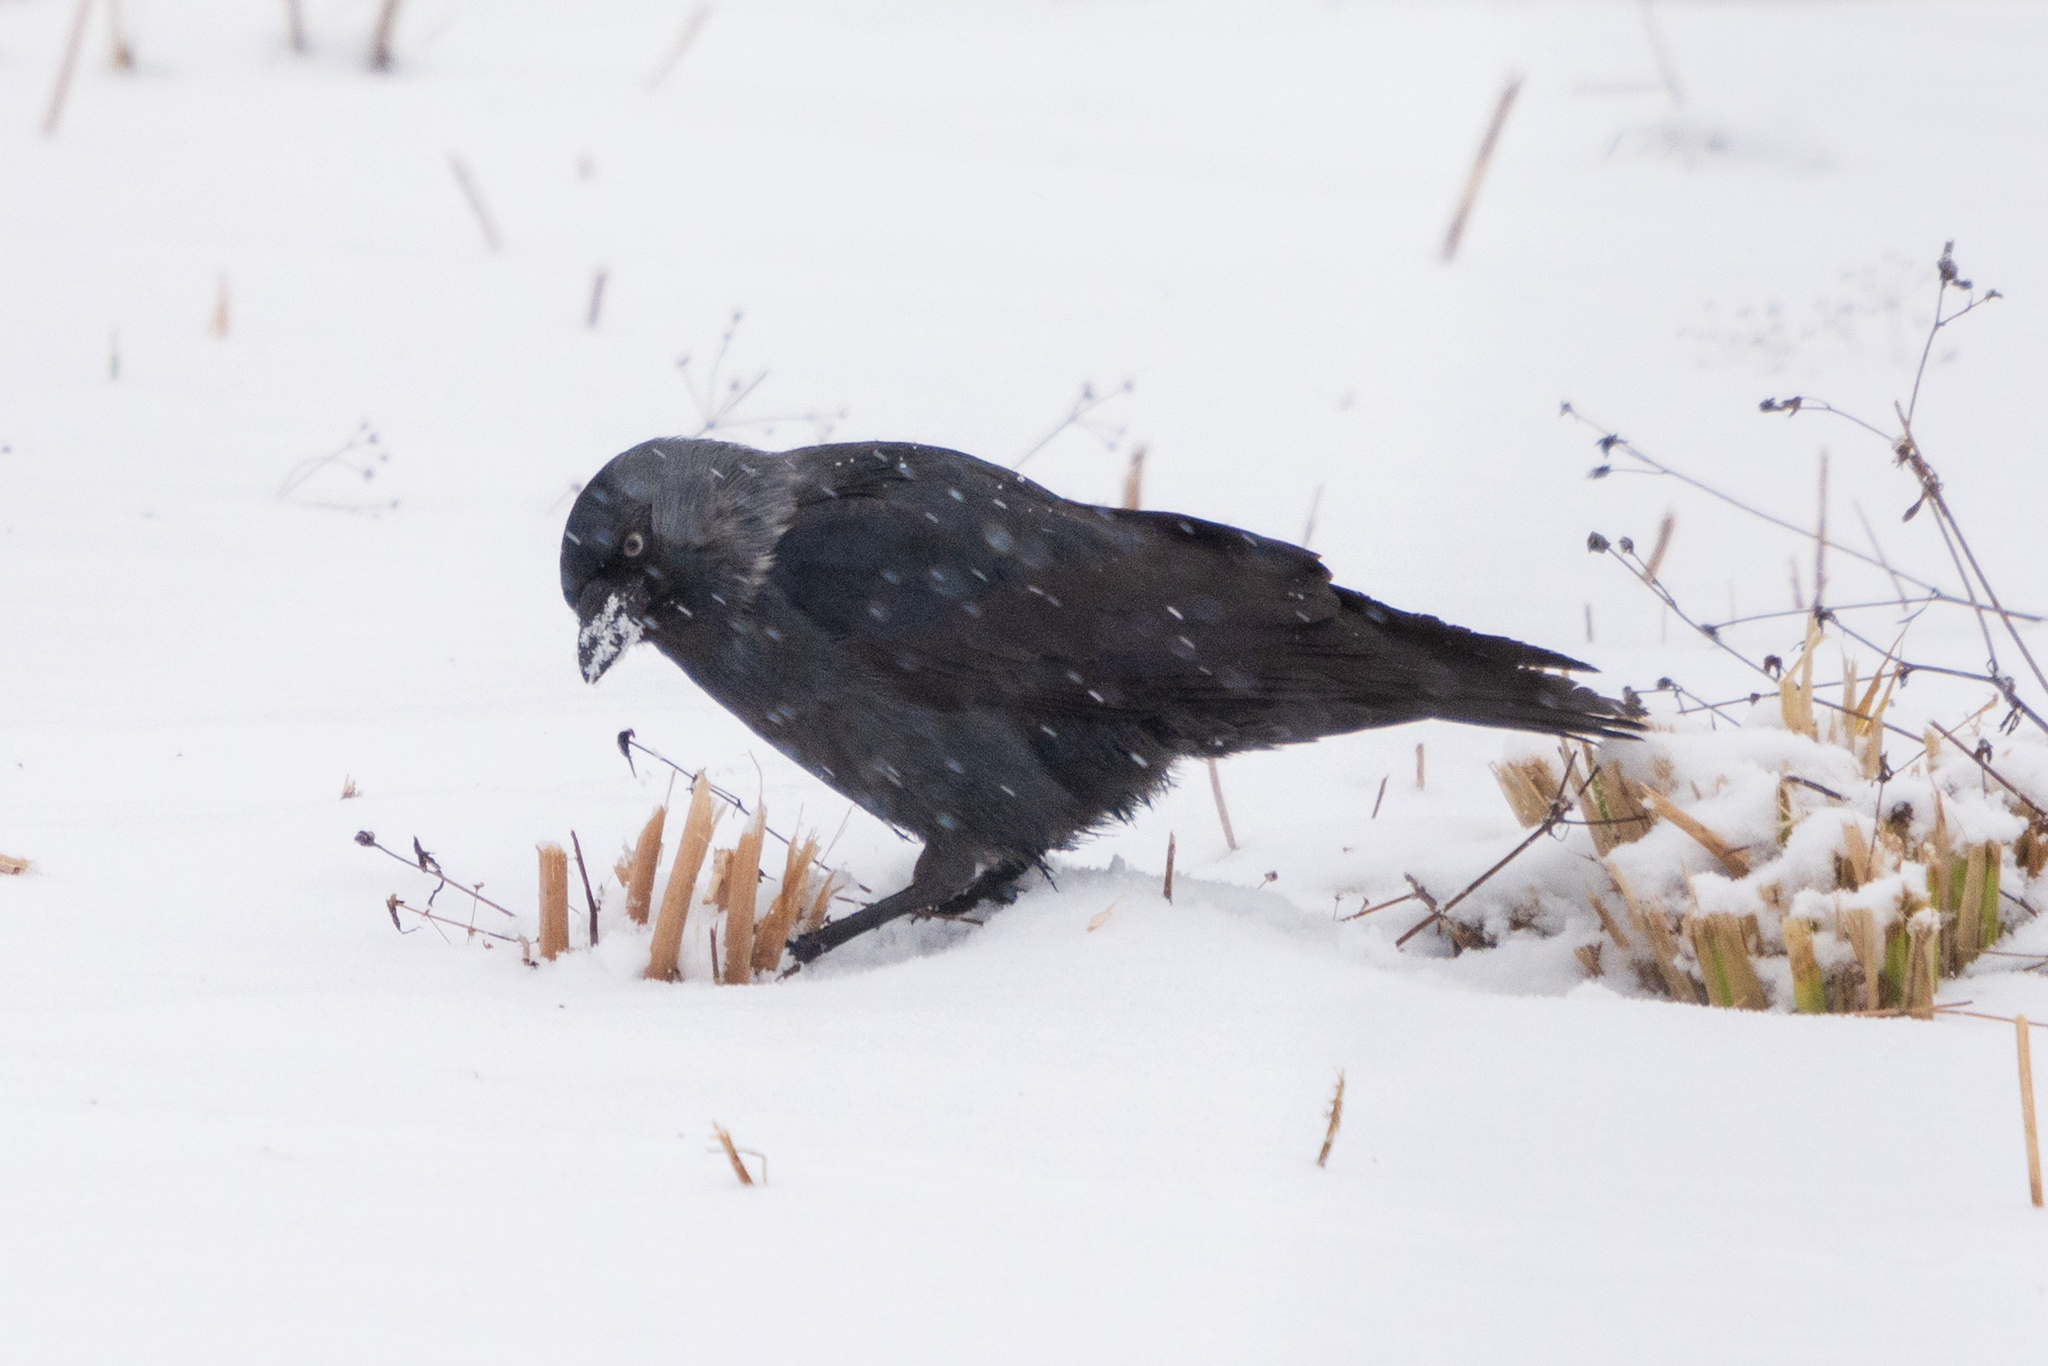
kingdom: Animalia
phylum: Chordata
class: Aves
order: Passeriformes
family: Corvidae
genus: Coloeus
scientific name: Coloeus monedula
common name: Western jackdaw
